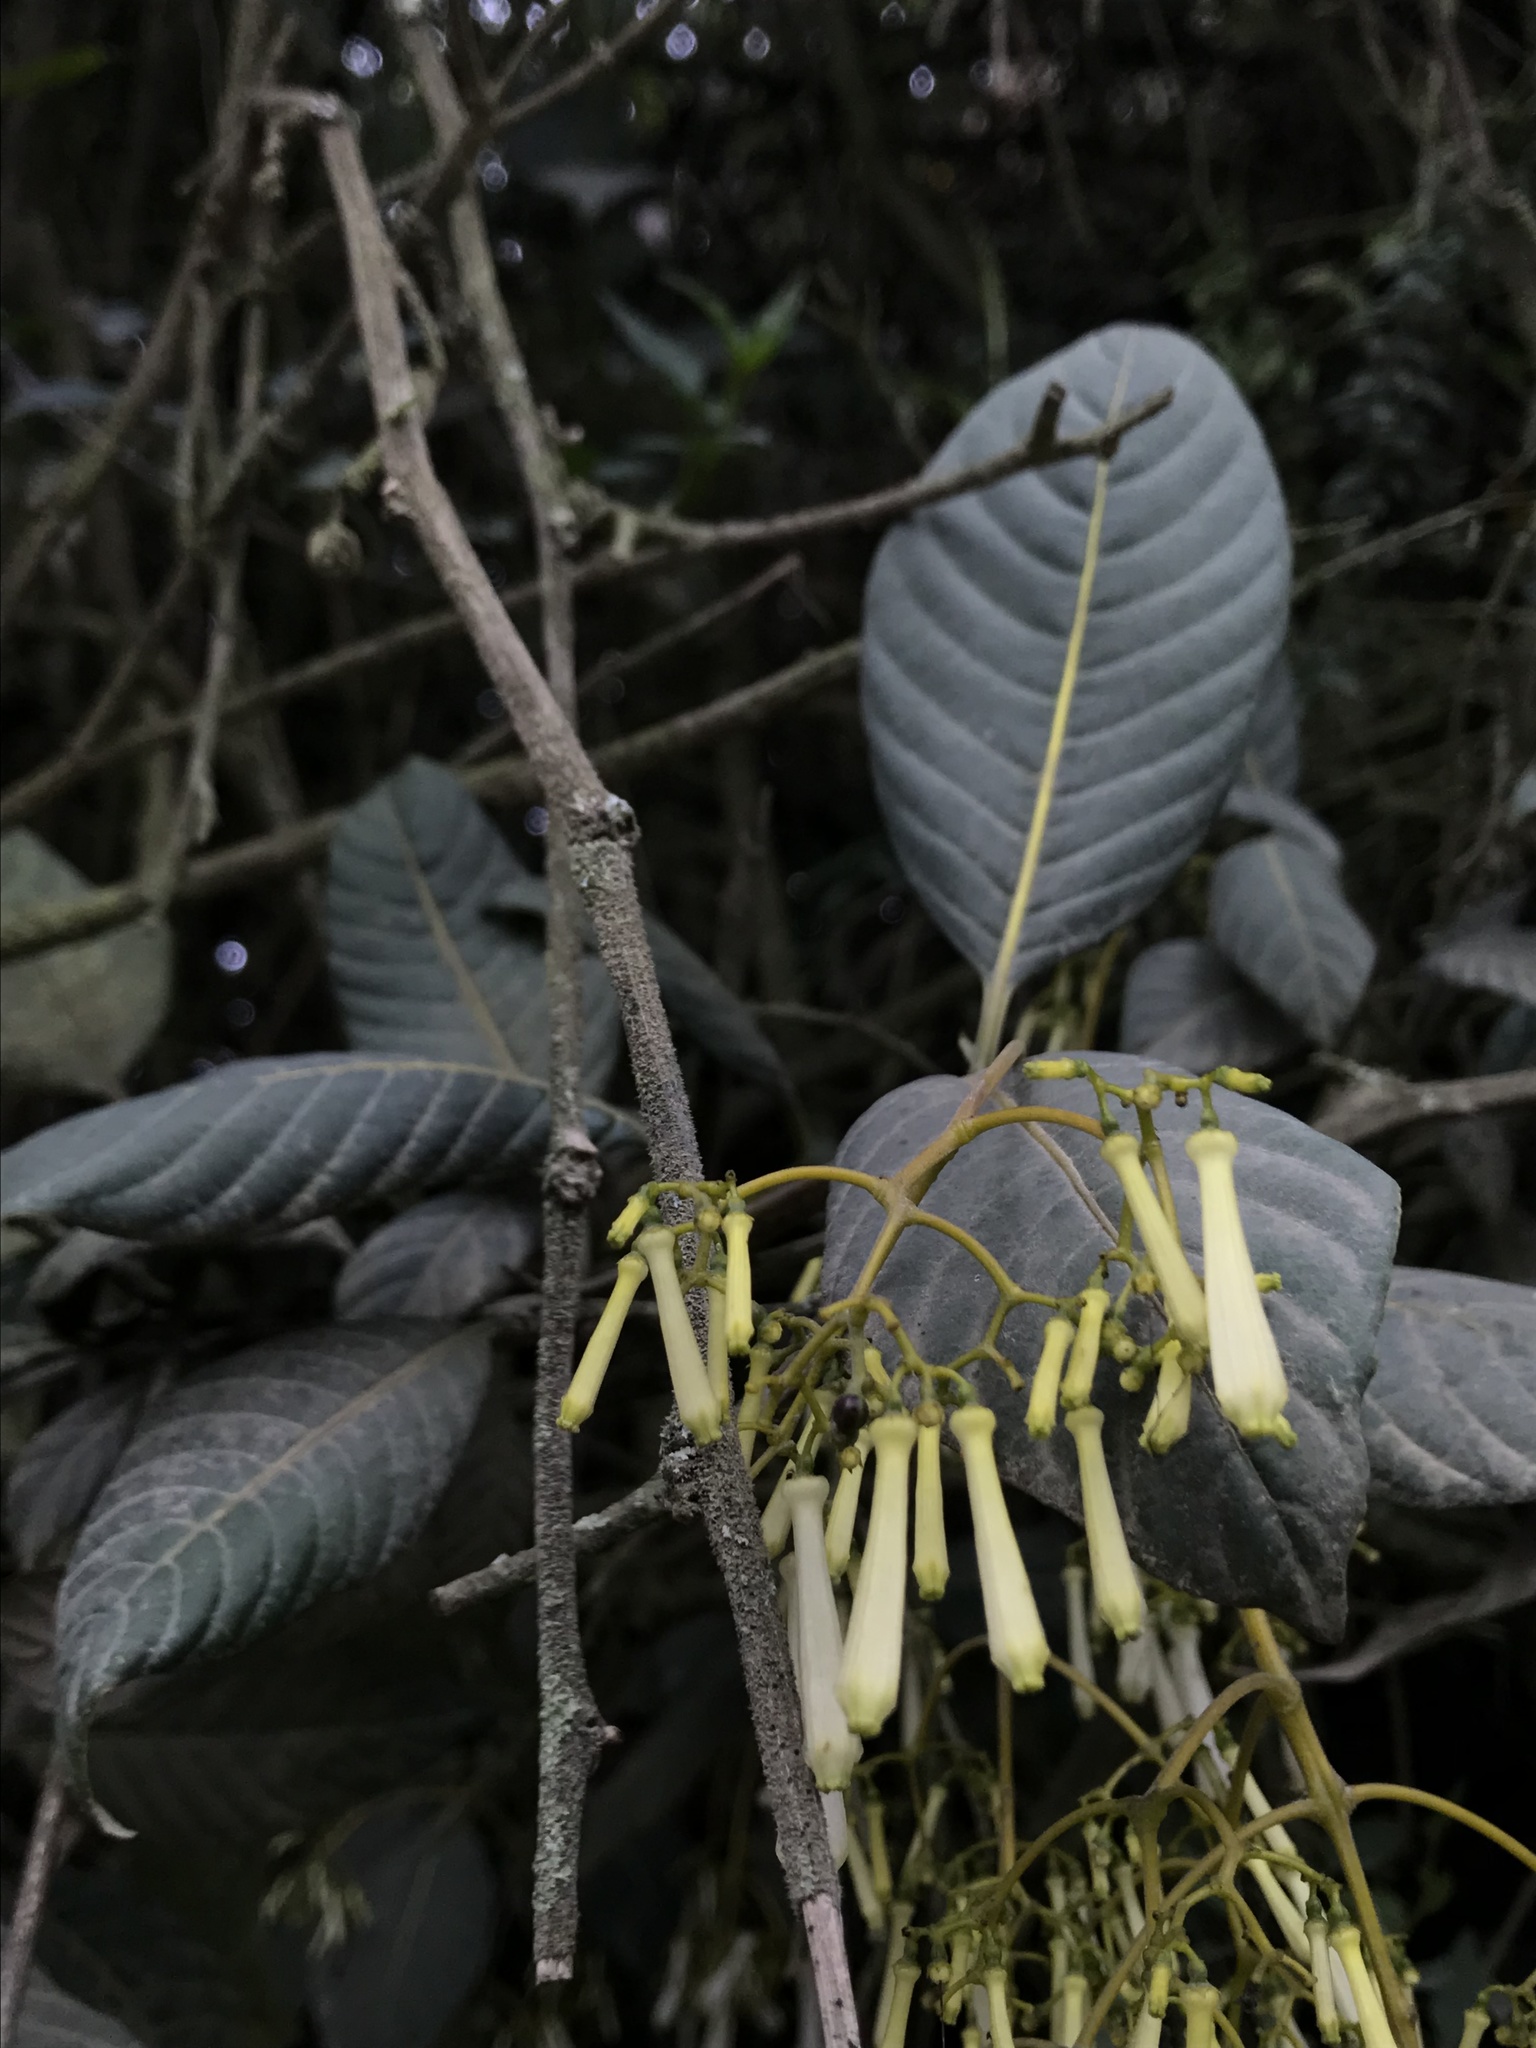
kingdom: Plantae
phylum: Tracheophyta
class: Magnoliopsida
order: Gentianales
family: Rubiaceae
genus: Palicourea
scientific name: Palicourea lineariflora
